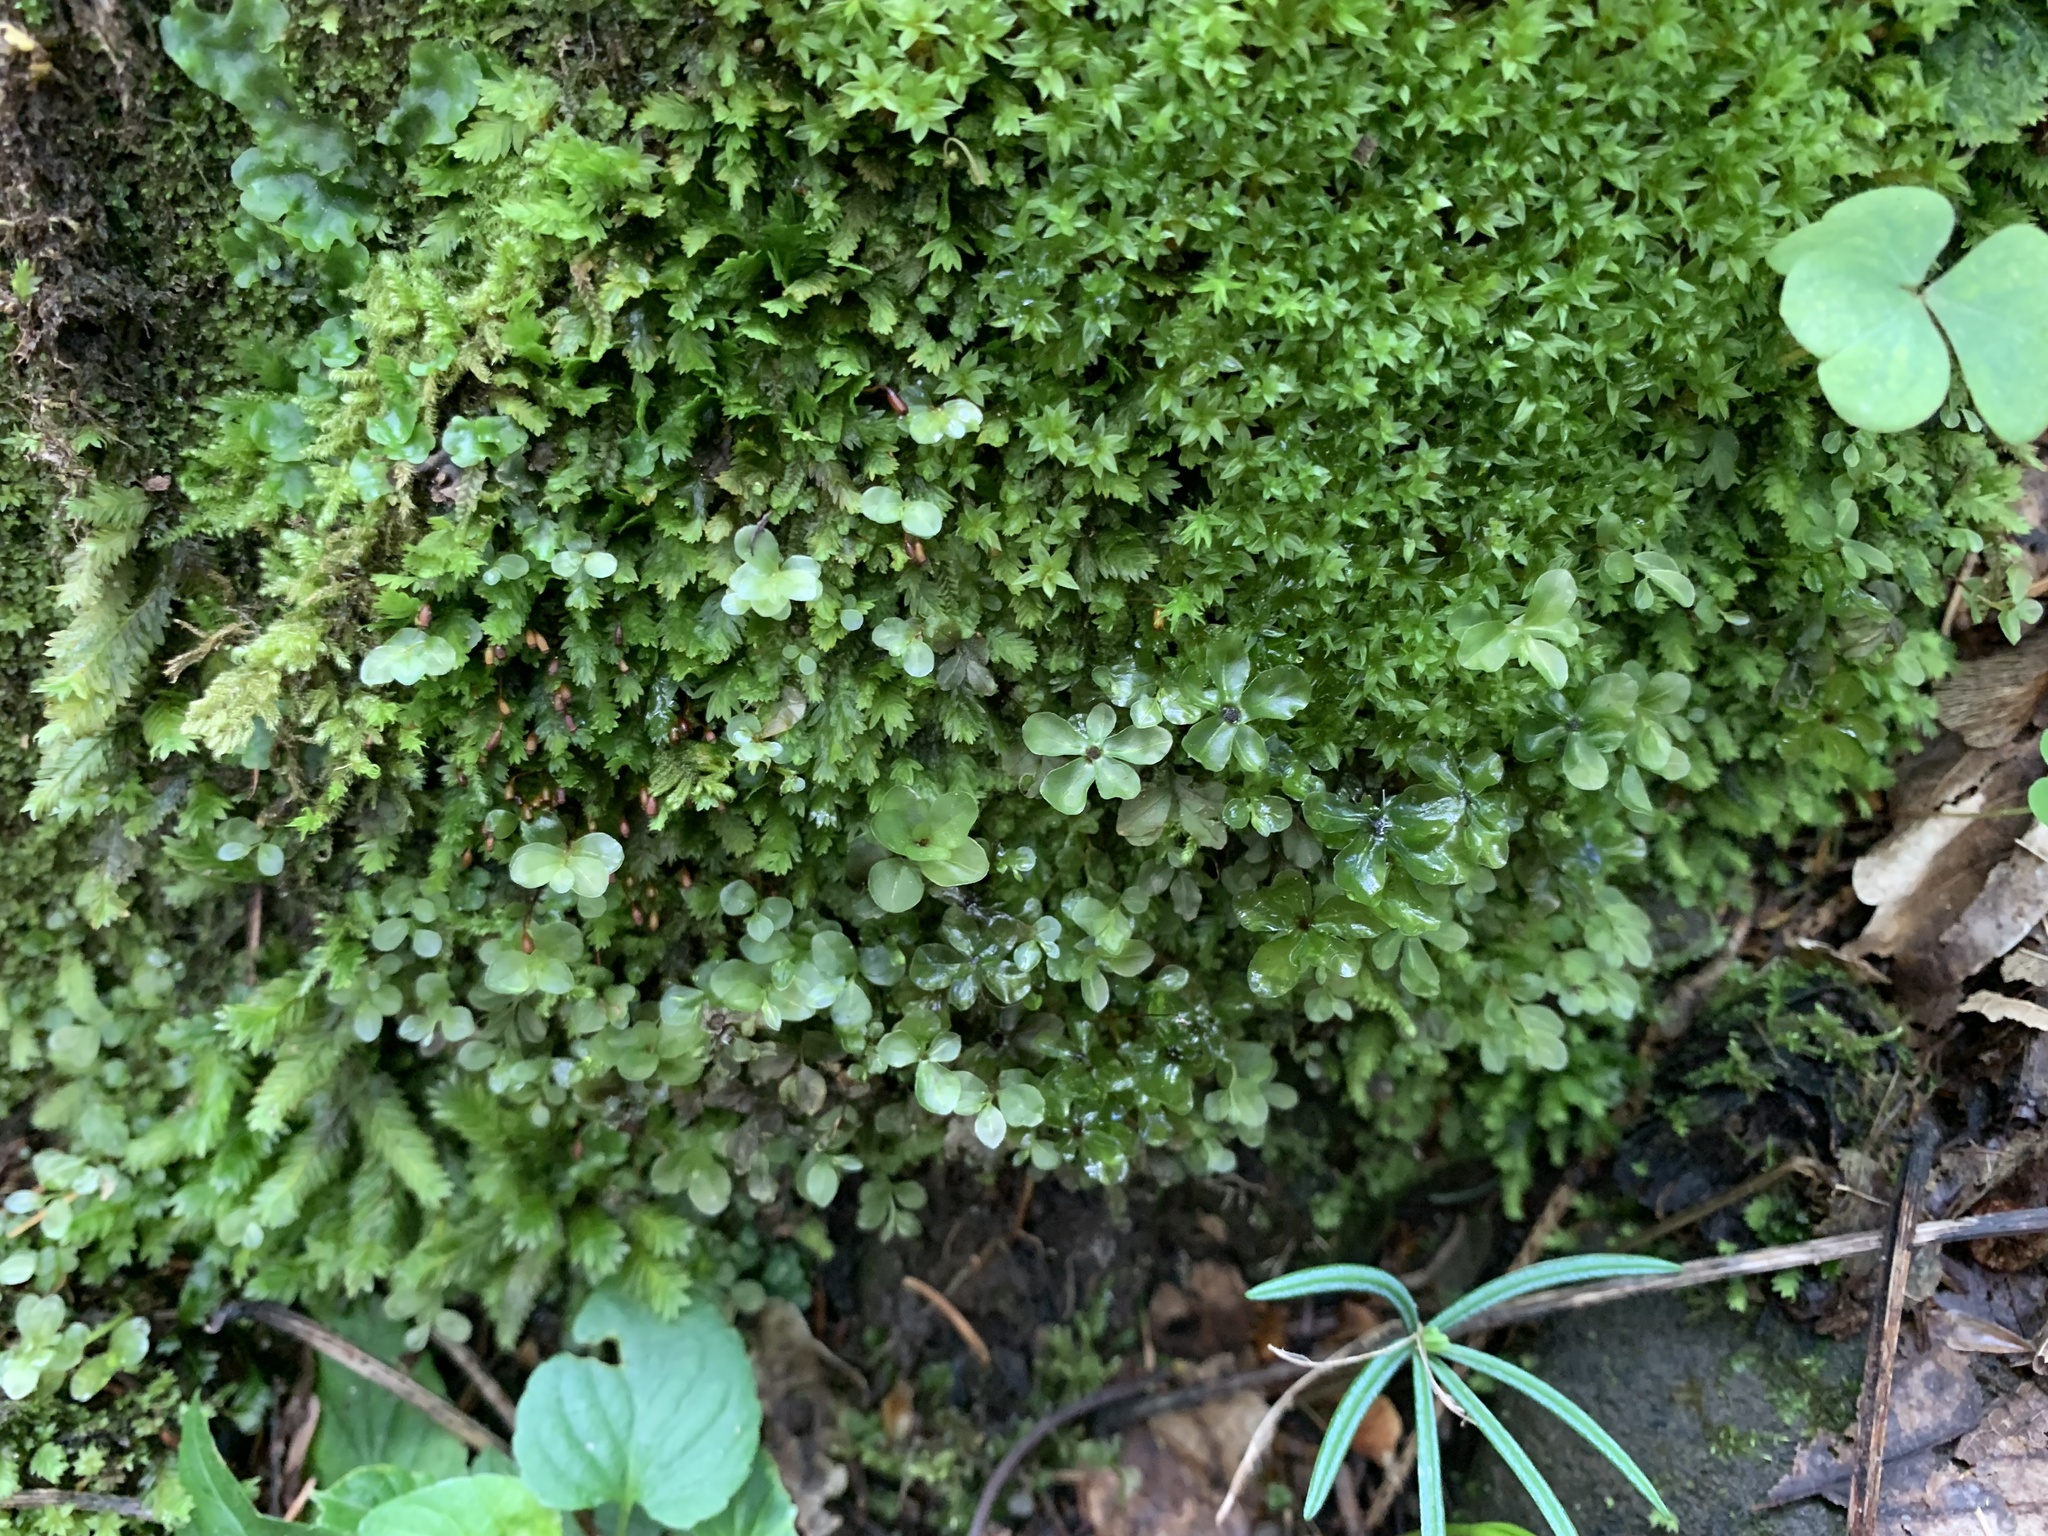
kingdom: Plantae
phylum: Bryophyta
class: Bryopsida
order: Bryales
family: Mniaceae
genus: Rhizomnium
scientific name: Rhizomnium punctatum
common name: Dotted leafy moss
